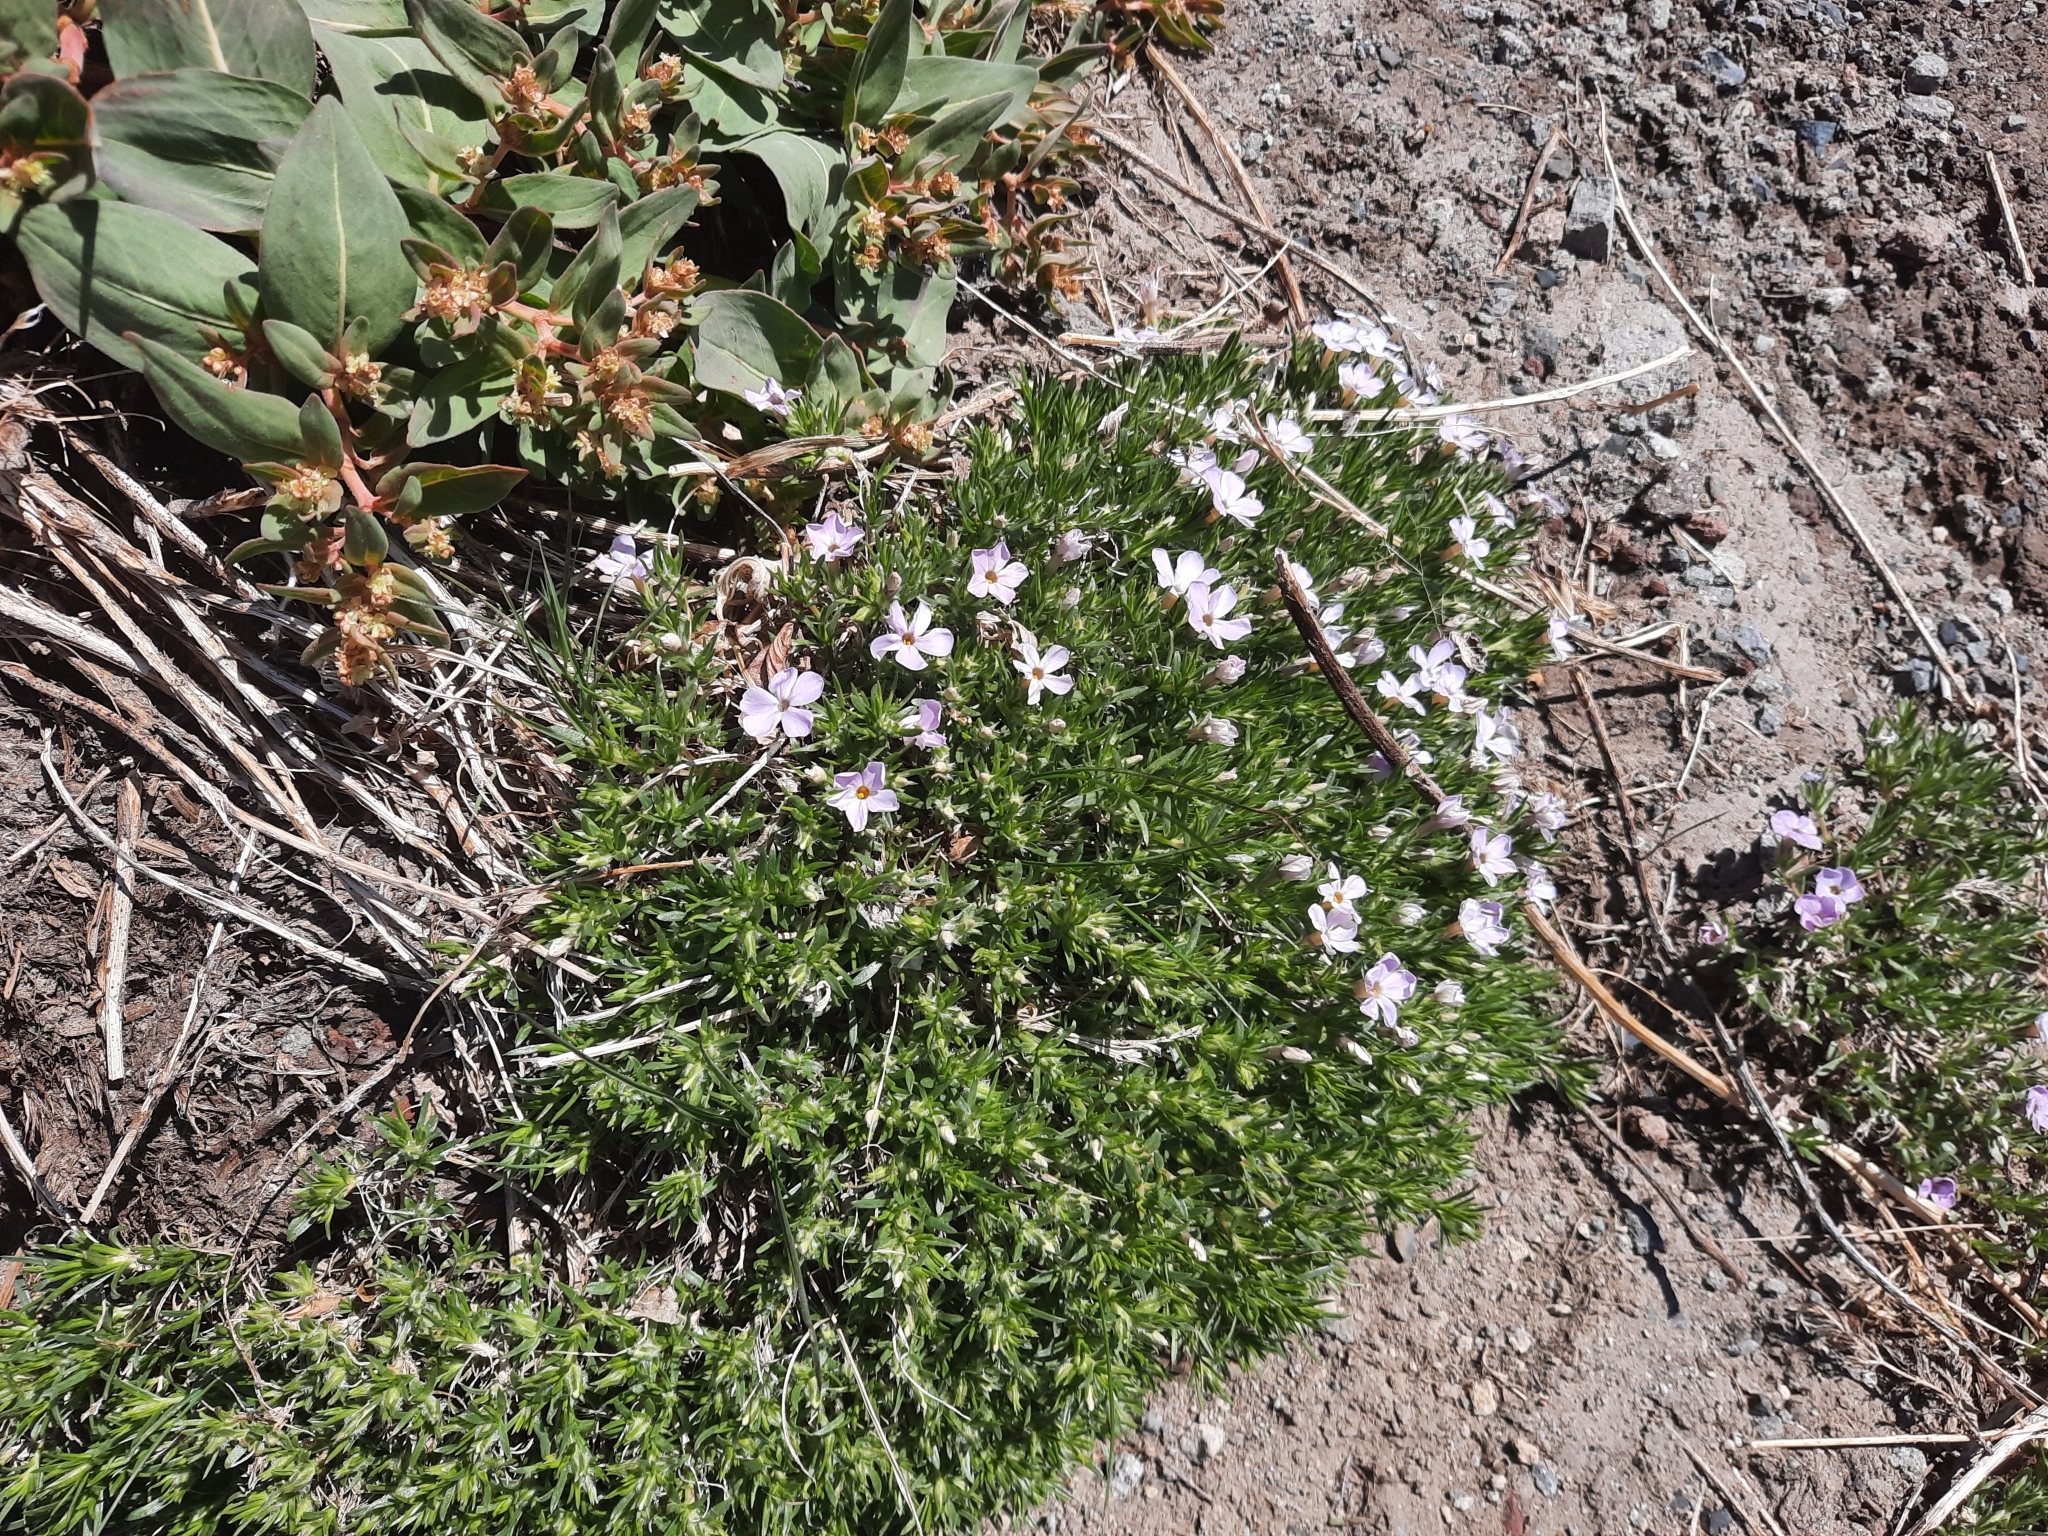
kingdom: Plantae
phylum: Tracheophyta
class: Magnoliopsida
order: Ericales
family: Polemoniaceae
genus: Phlox
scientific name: Phlox diffusa
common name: Mat phlox
